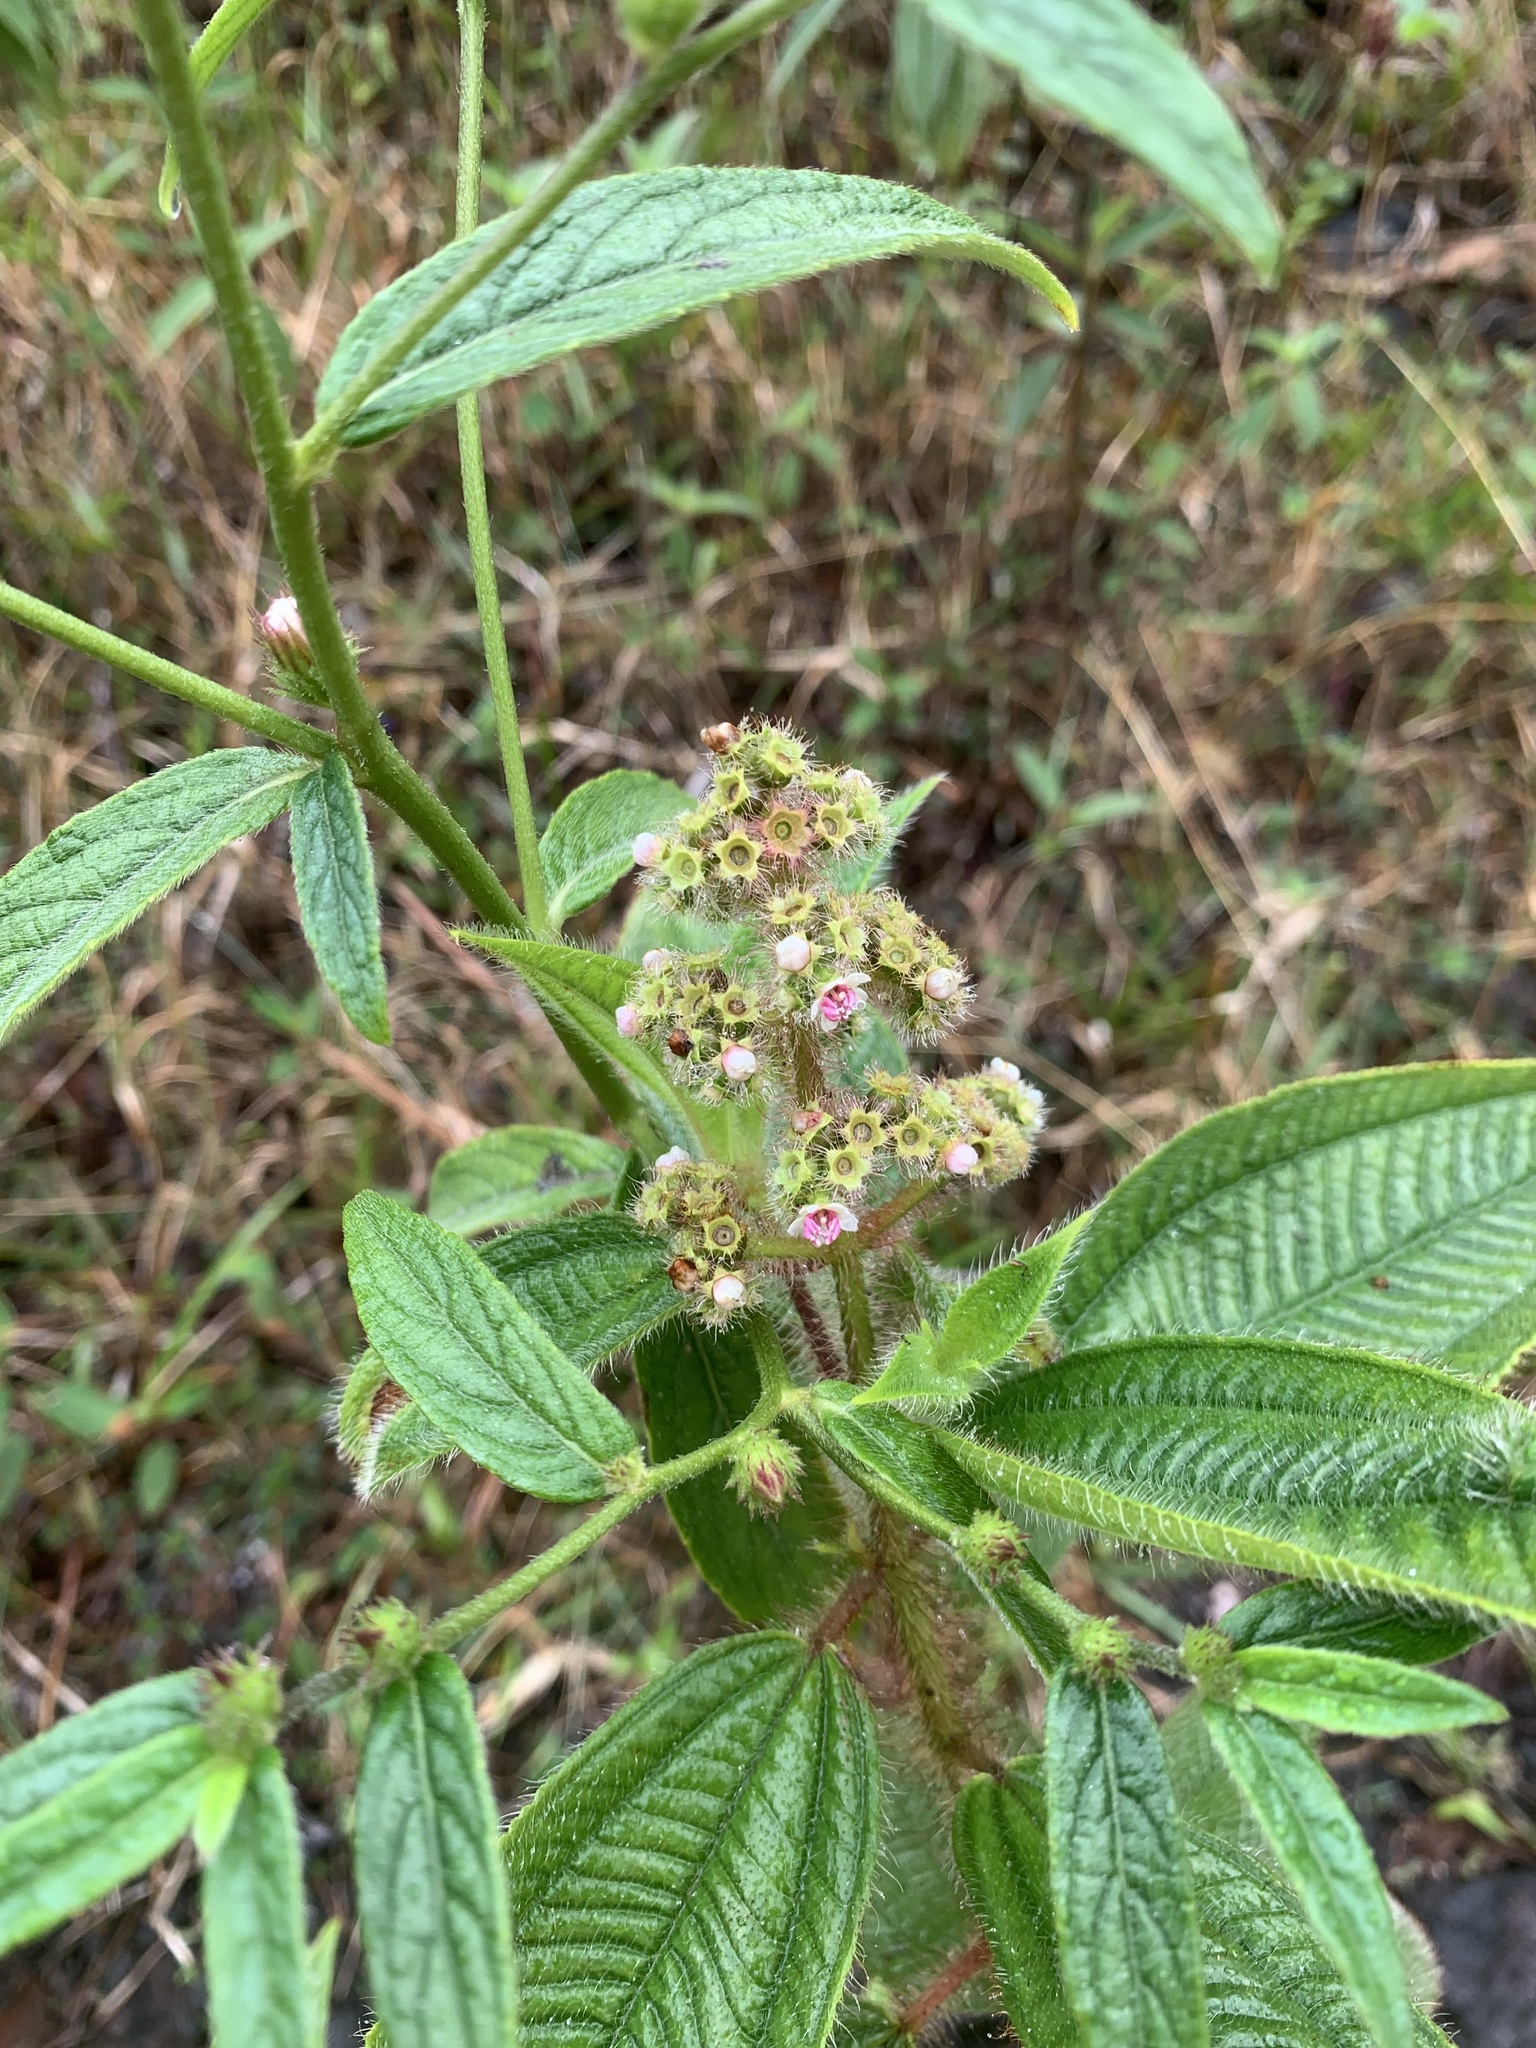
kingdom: Plantae
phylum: Tracheophyta
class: Magnoliopsida
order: Myrtales
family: Melastomataceae
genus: Miconia
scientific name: Miconia lacera
